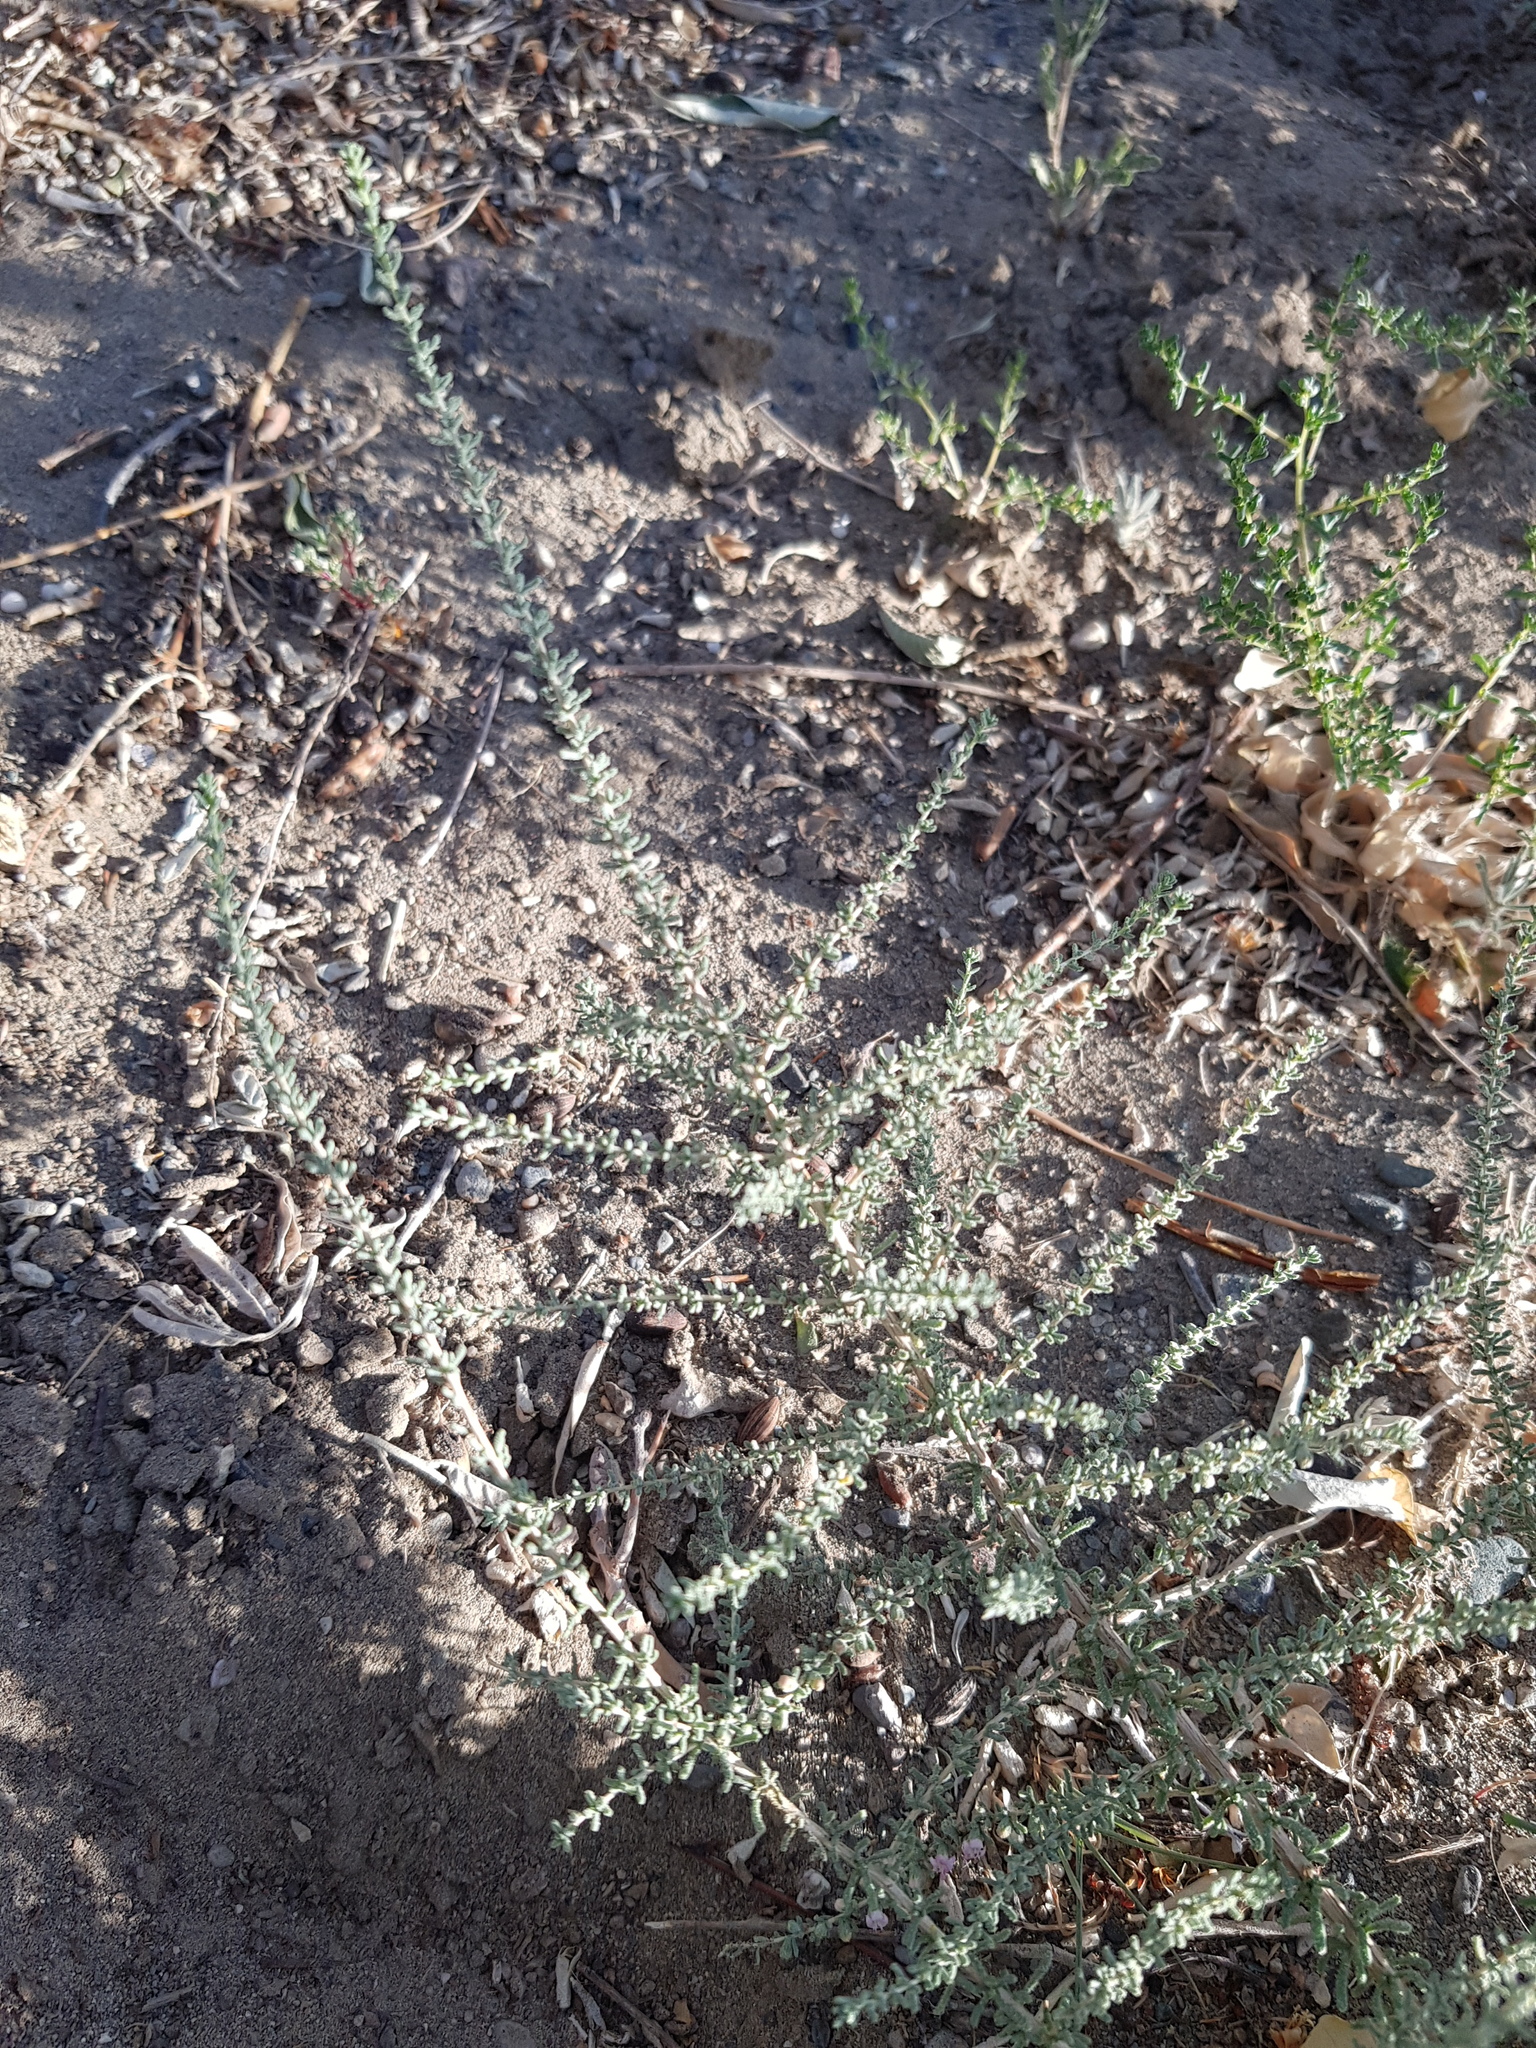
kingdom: Plantae
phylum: Tracheophyta
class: Magnoliopsida
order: Caryophyllales
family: Tamaricaceae
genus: Reaumuria
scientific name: Reaumuria songarica
